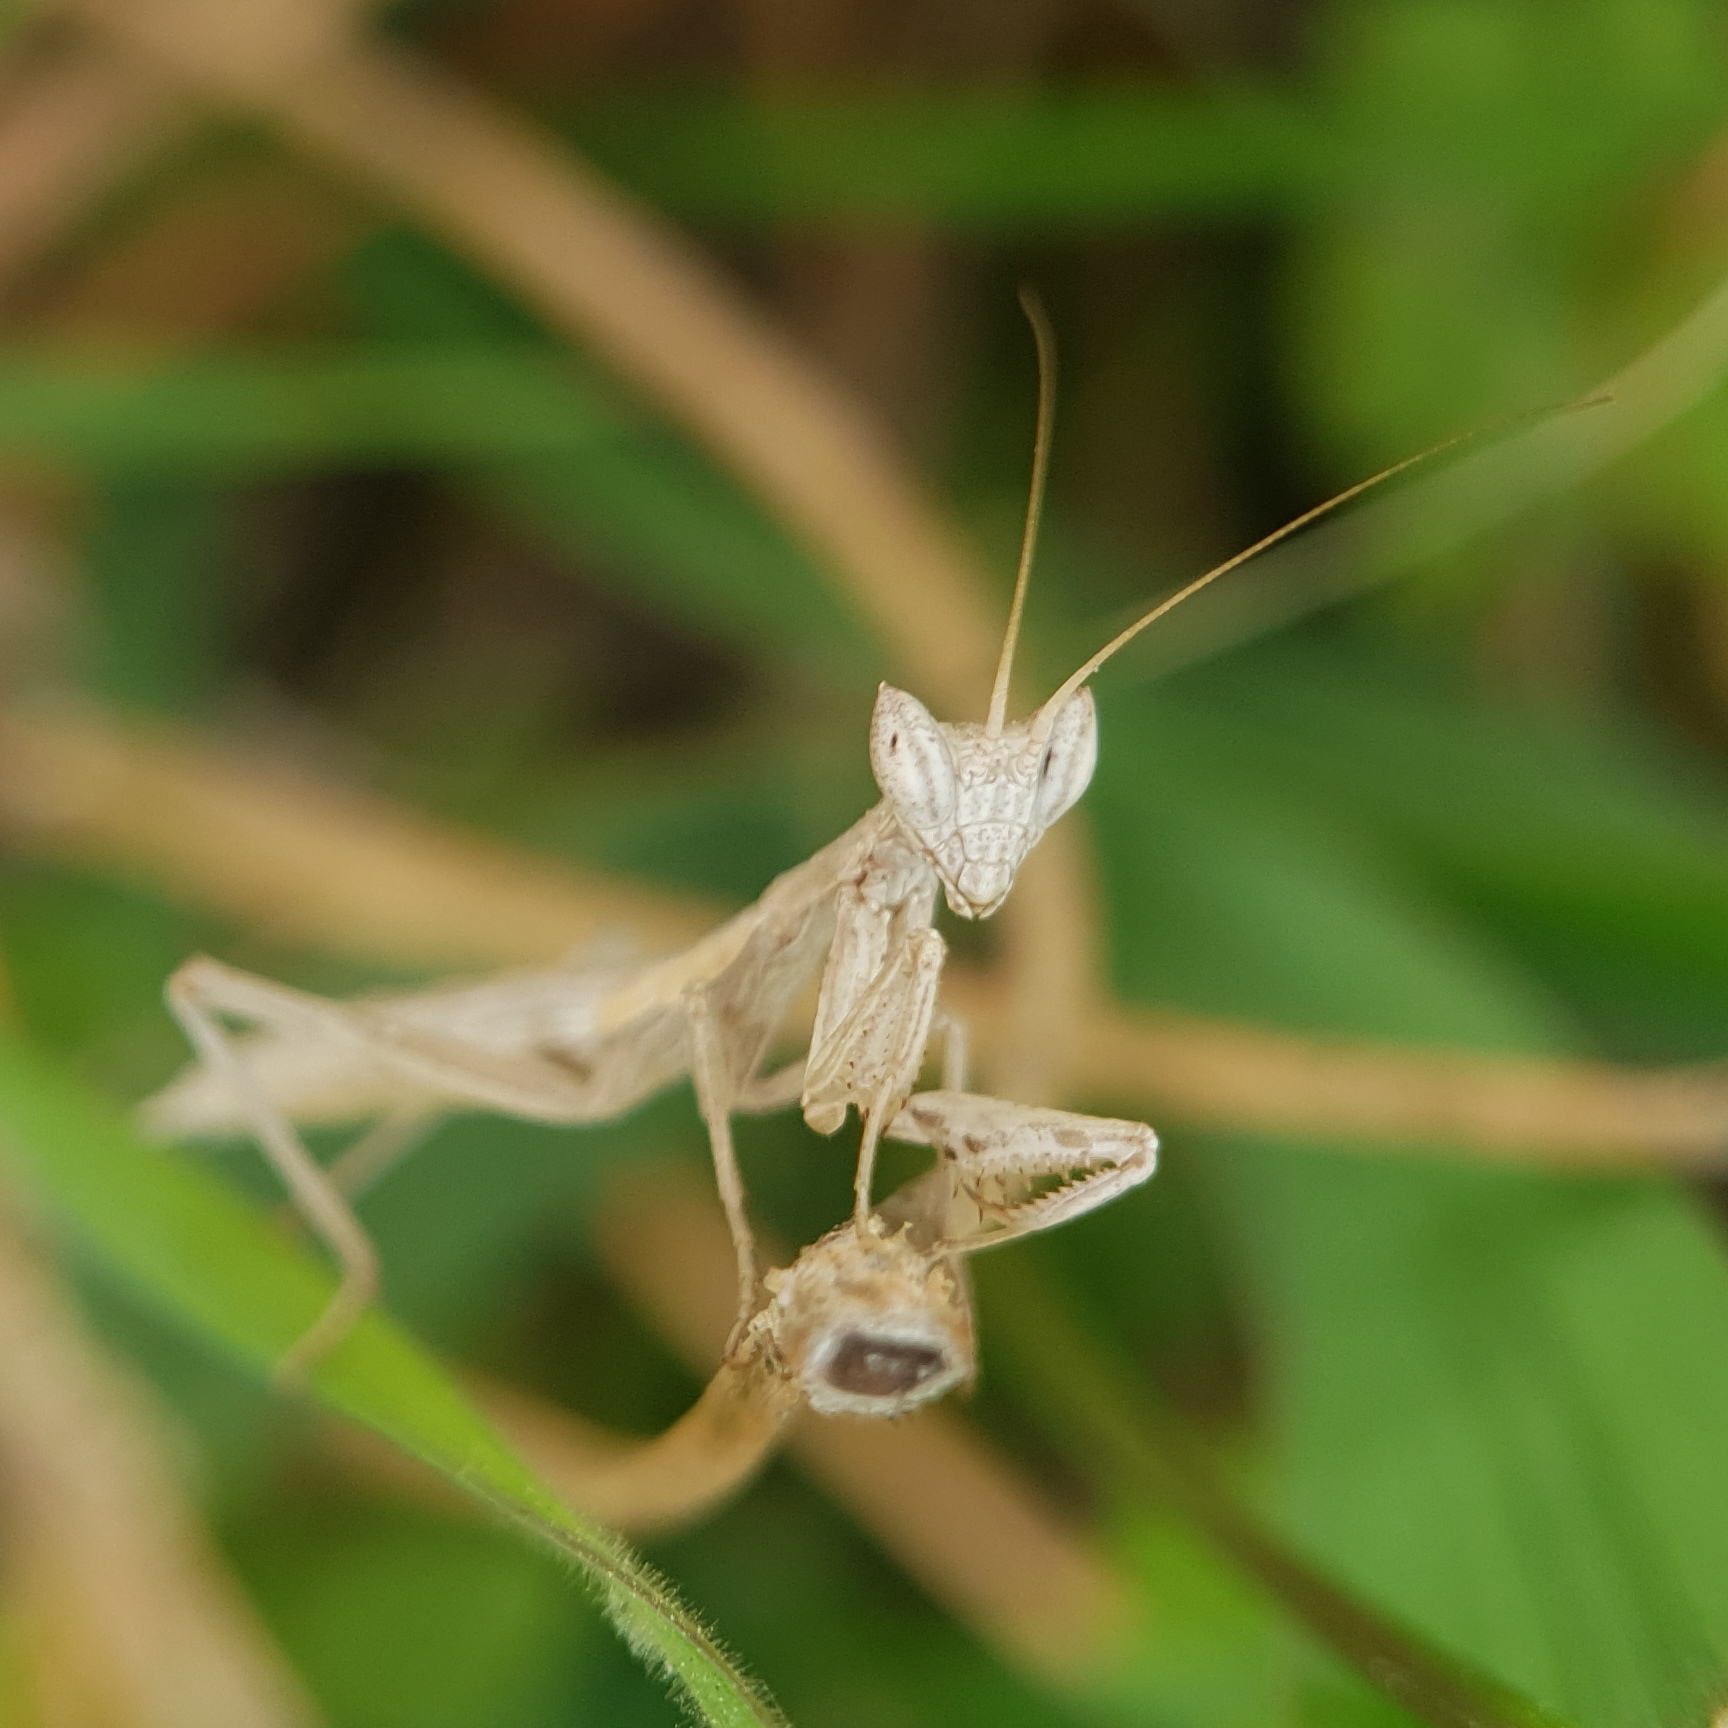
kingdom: Animalia
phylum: Arthropoda
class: Insecta
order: Mantodea
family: Amelidae
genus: Ameles
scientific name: Ameles heldreichi
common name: Heldreich's dwarf mantis
